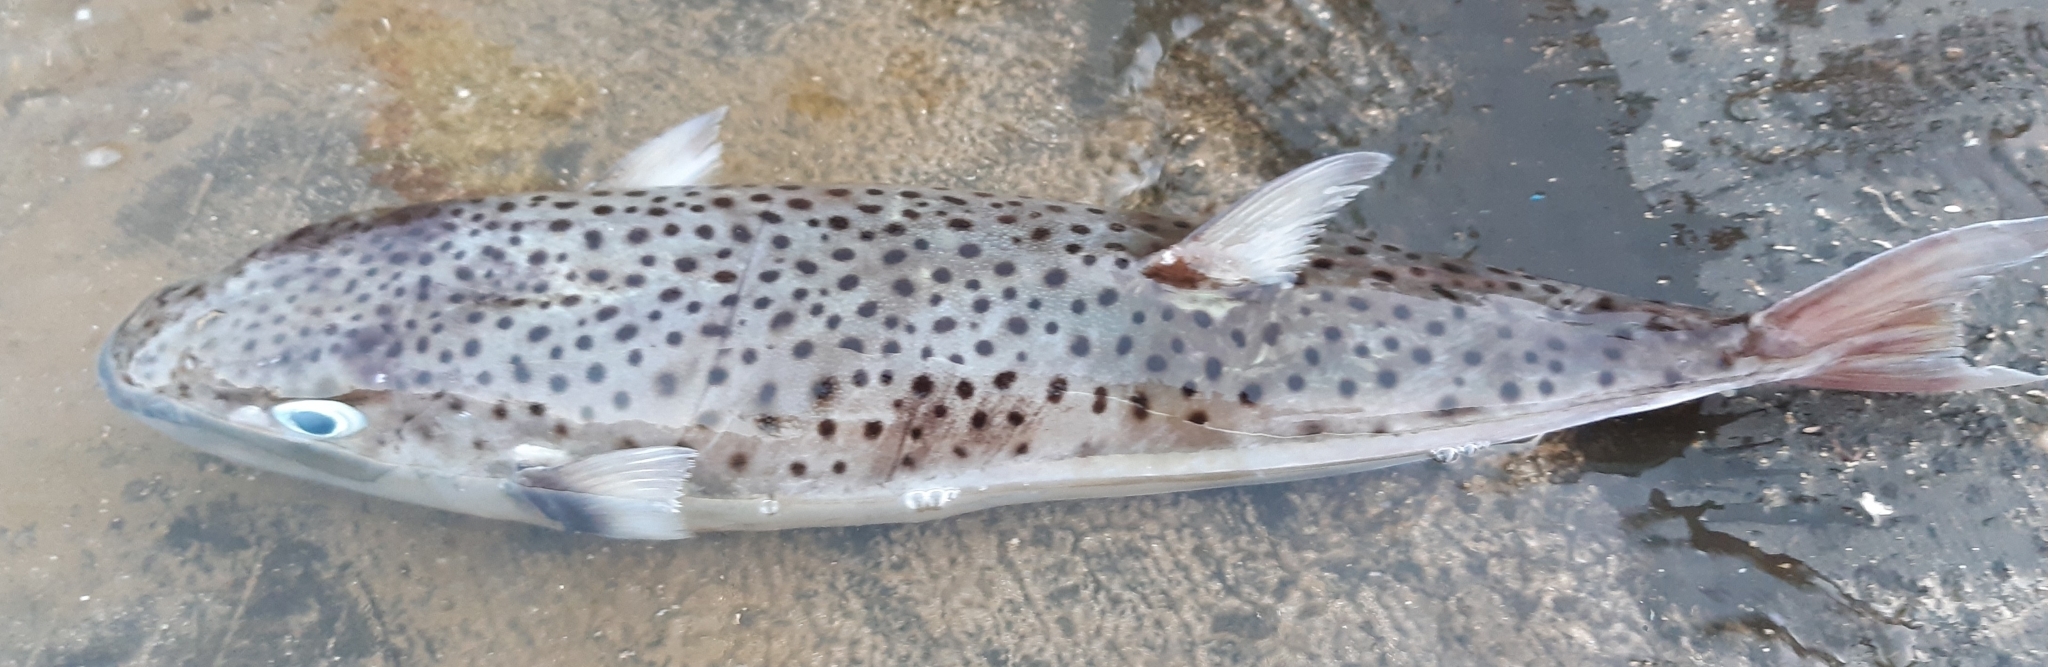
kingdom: Animalia
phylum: Chordata
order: Tetraodontiformes
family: Tetraodontidae
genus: Lagocephalus
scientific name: Lagocephalus sceleratus
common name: Silverstripe blaasop
